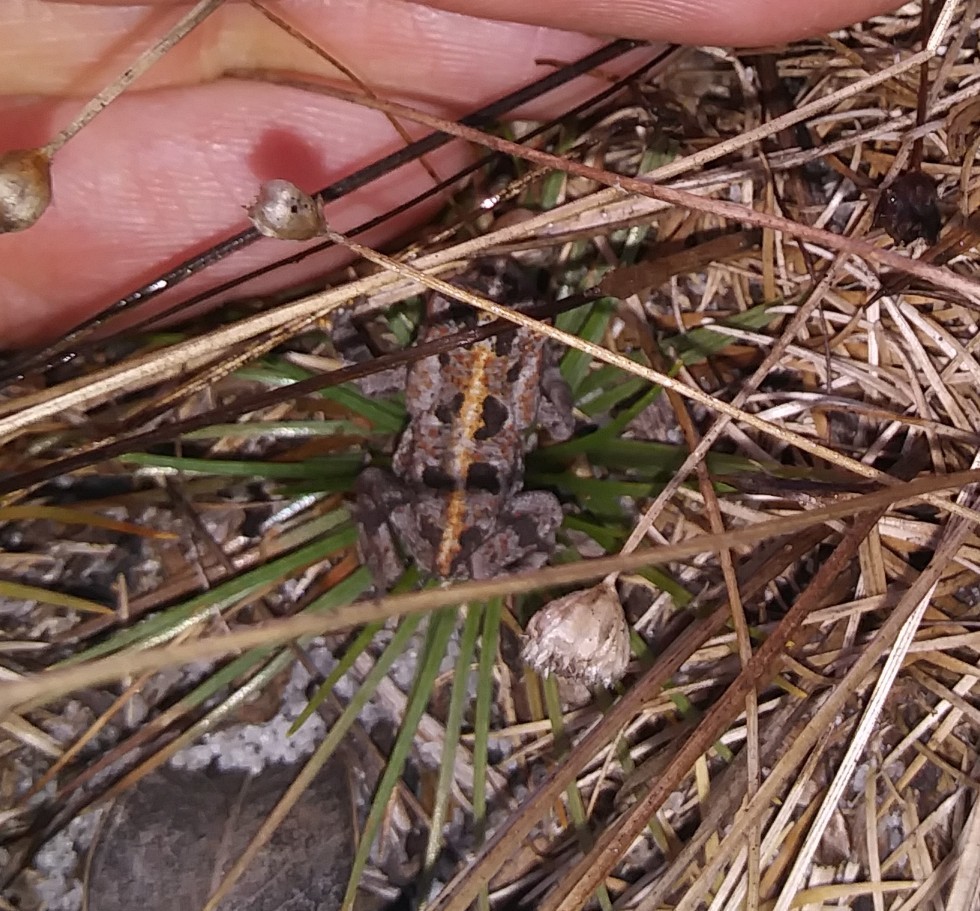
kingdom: Animalia
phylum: Chordata
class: Amphibia
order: Anura
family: Bufonidae
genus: Anaxyrus
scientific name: Anaxyrus quercicus
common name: Oak toad
